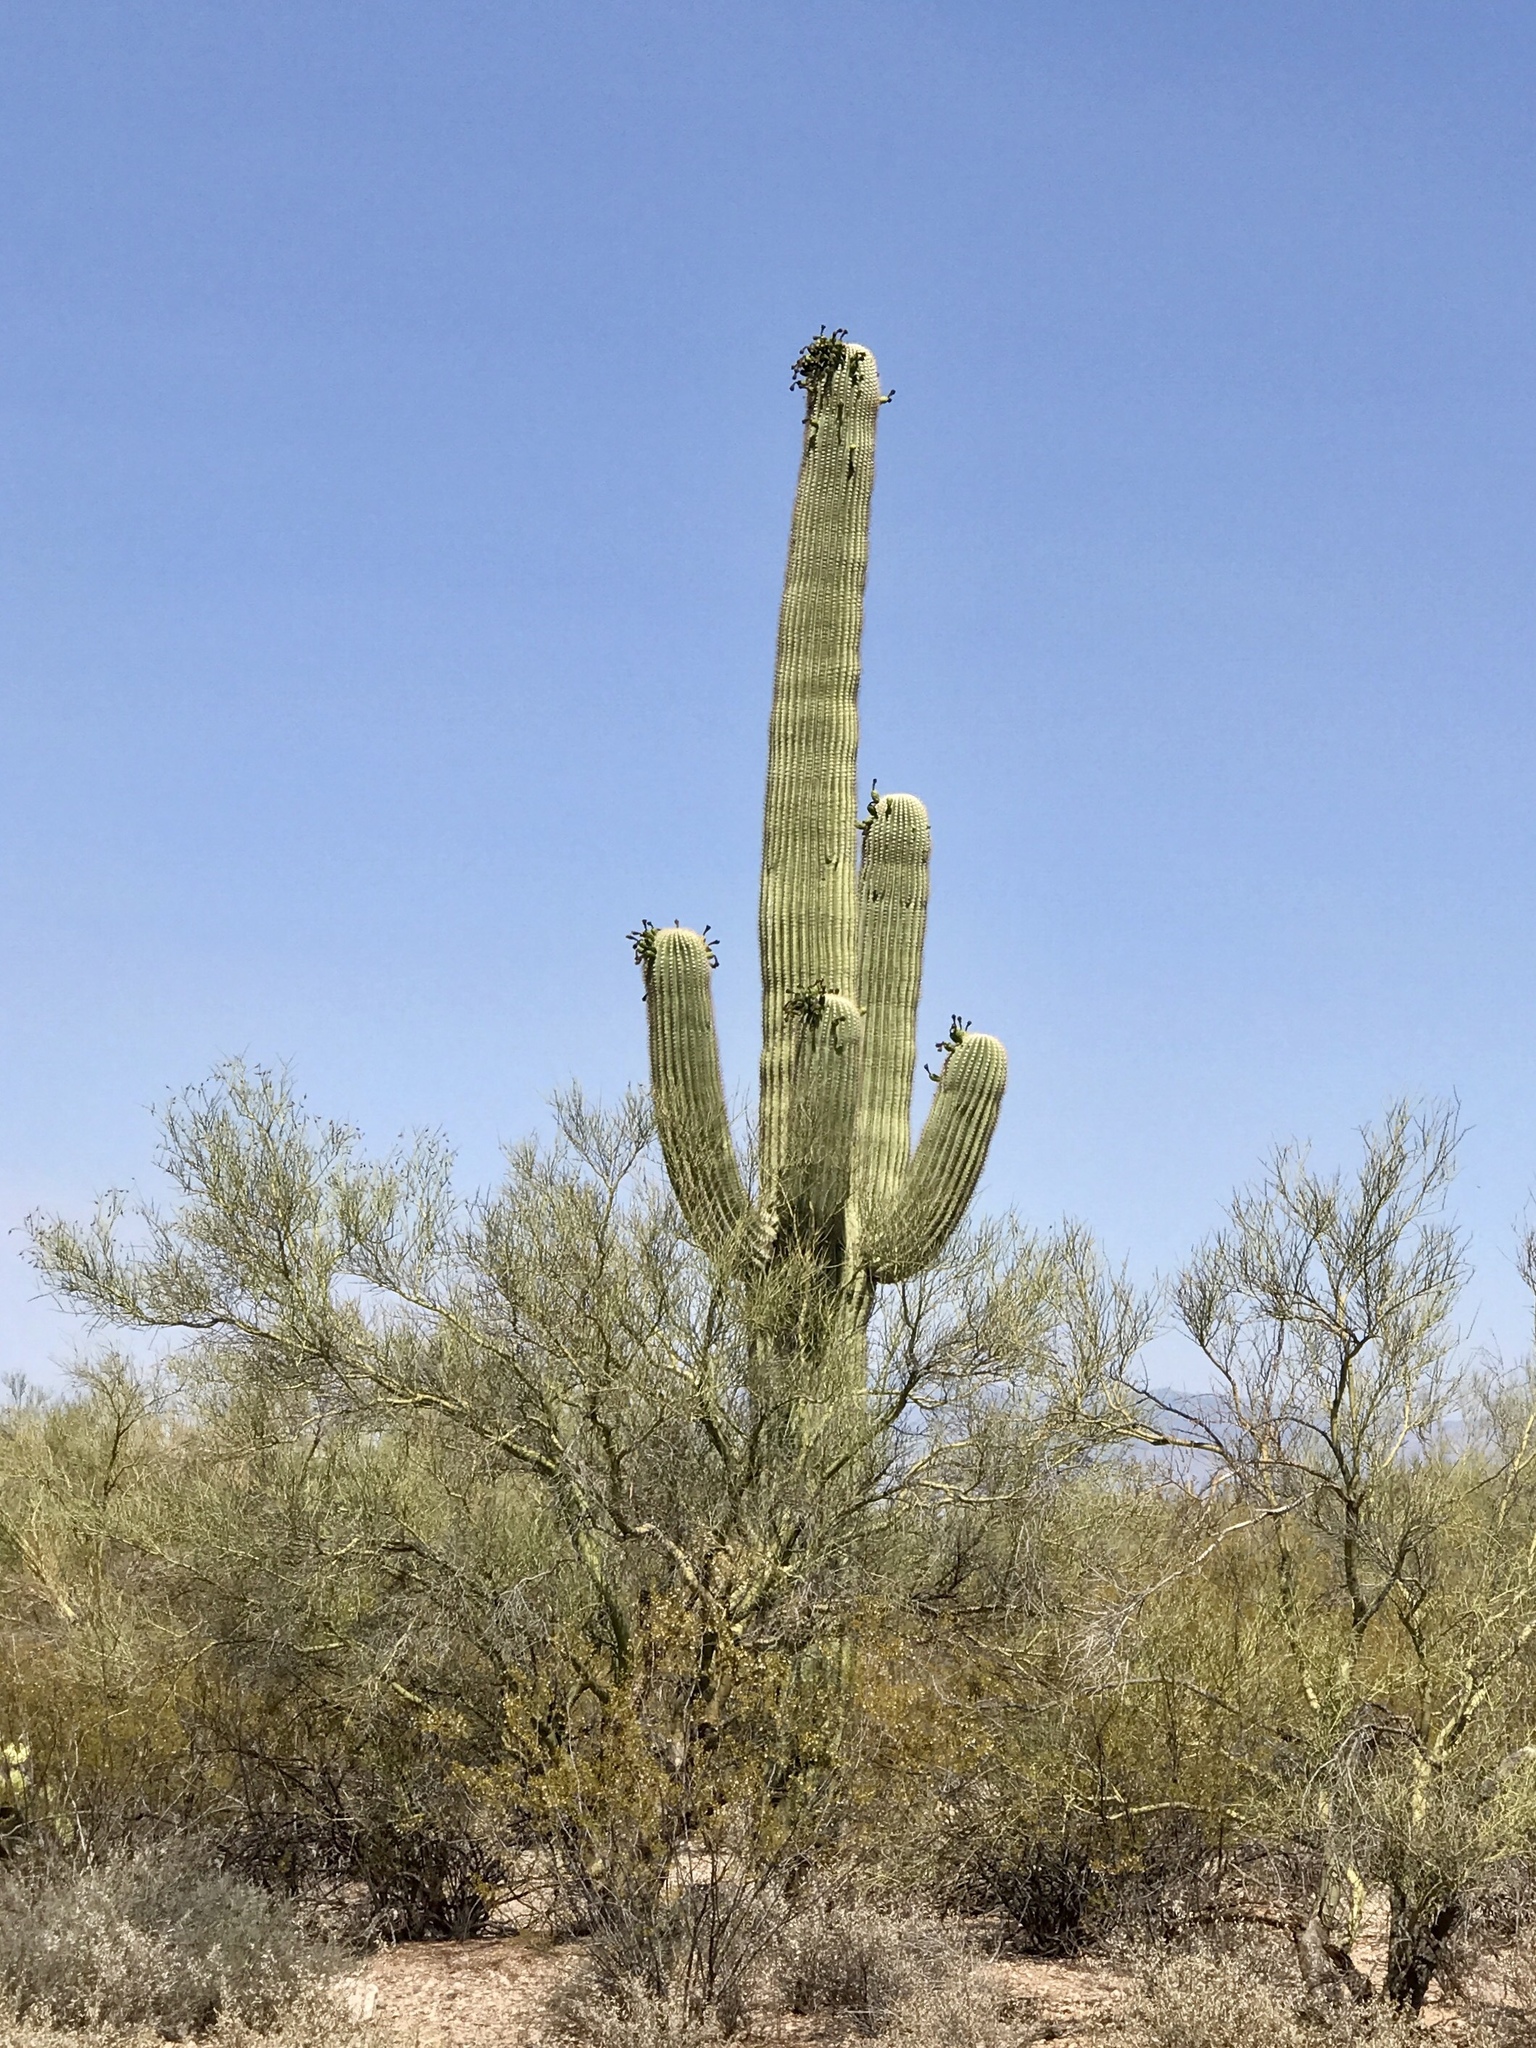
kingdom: Plantae
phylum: Tracheophyta
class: Magnoliopsida
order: Caryophyllales
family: Cactaceae
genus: Carnegiea
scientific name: Carnegiea gigantea
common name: Saguaro
